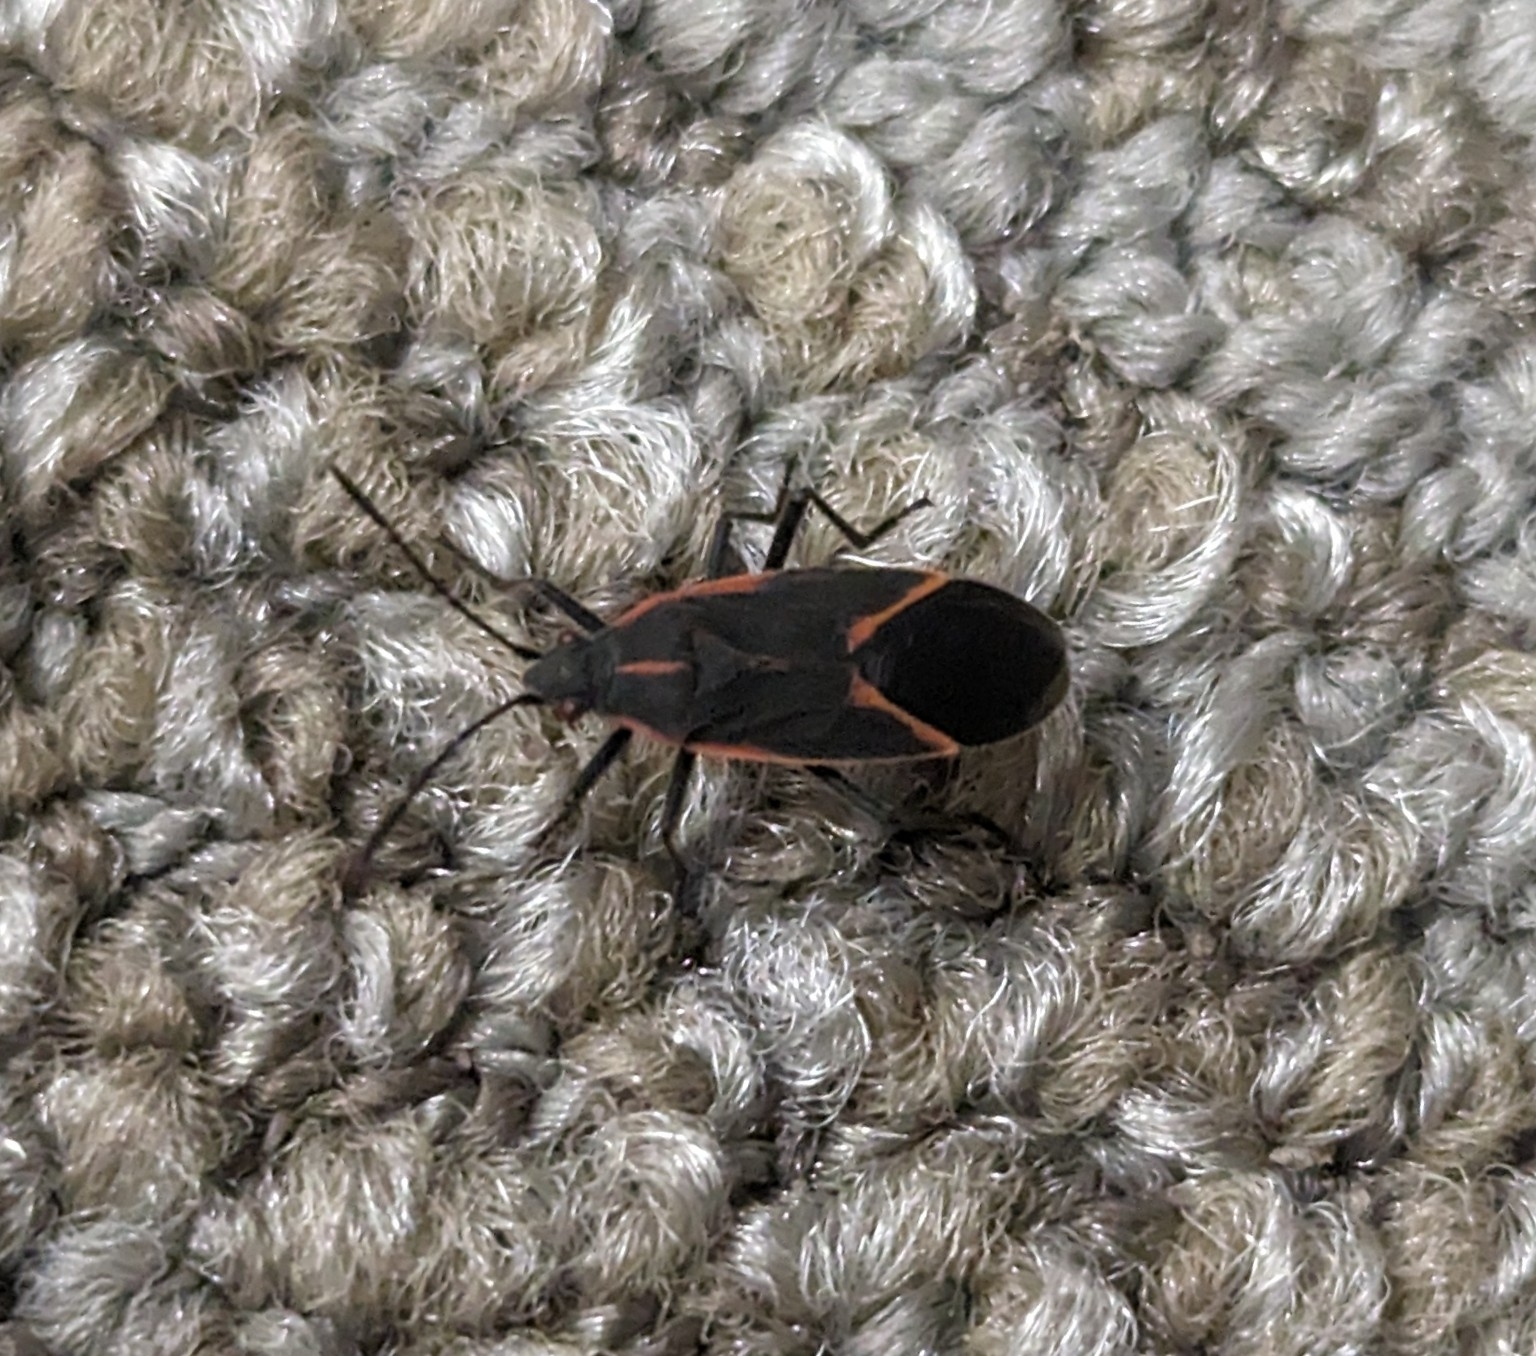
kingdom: Animalia
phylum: Arthropoda
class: Insecta
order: Hemiptera
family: Rhopalidae
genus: Boisea
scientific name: Boisea trivittata
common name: Boxelder bug
